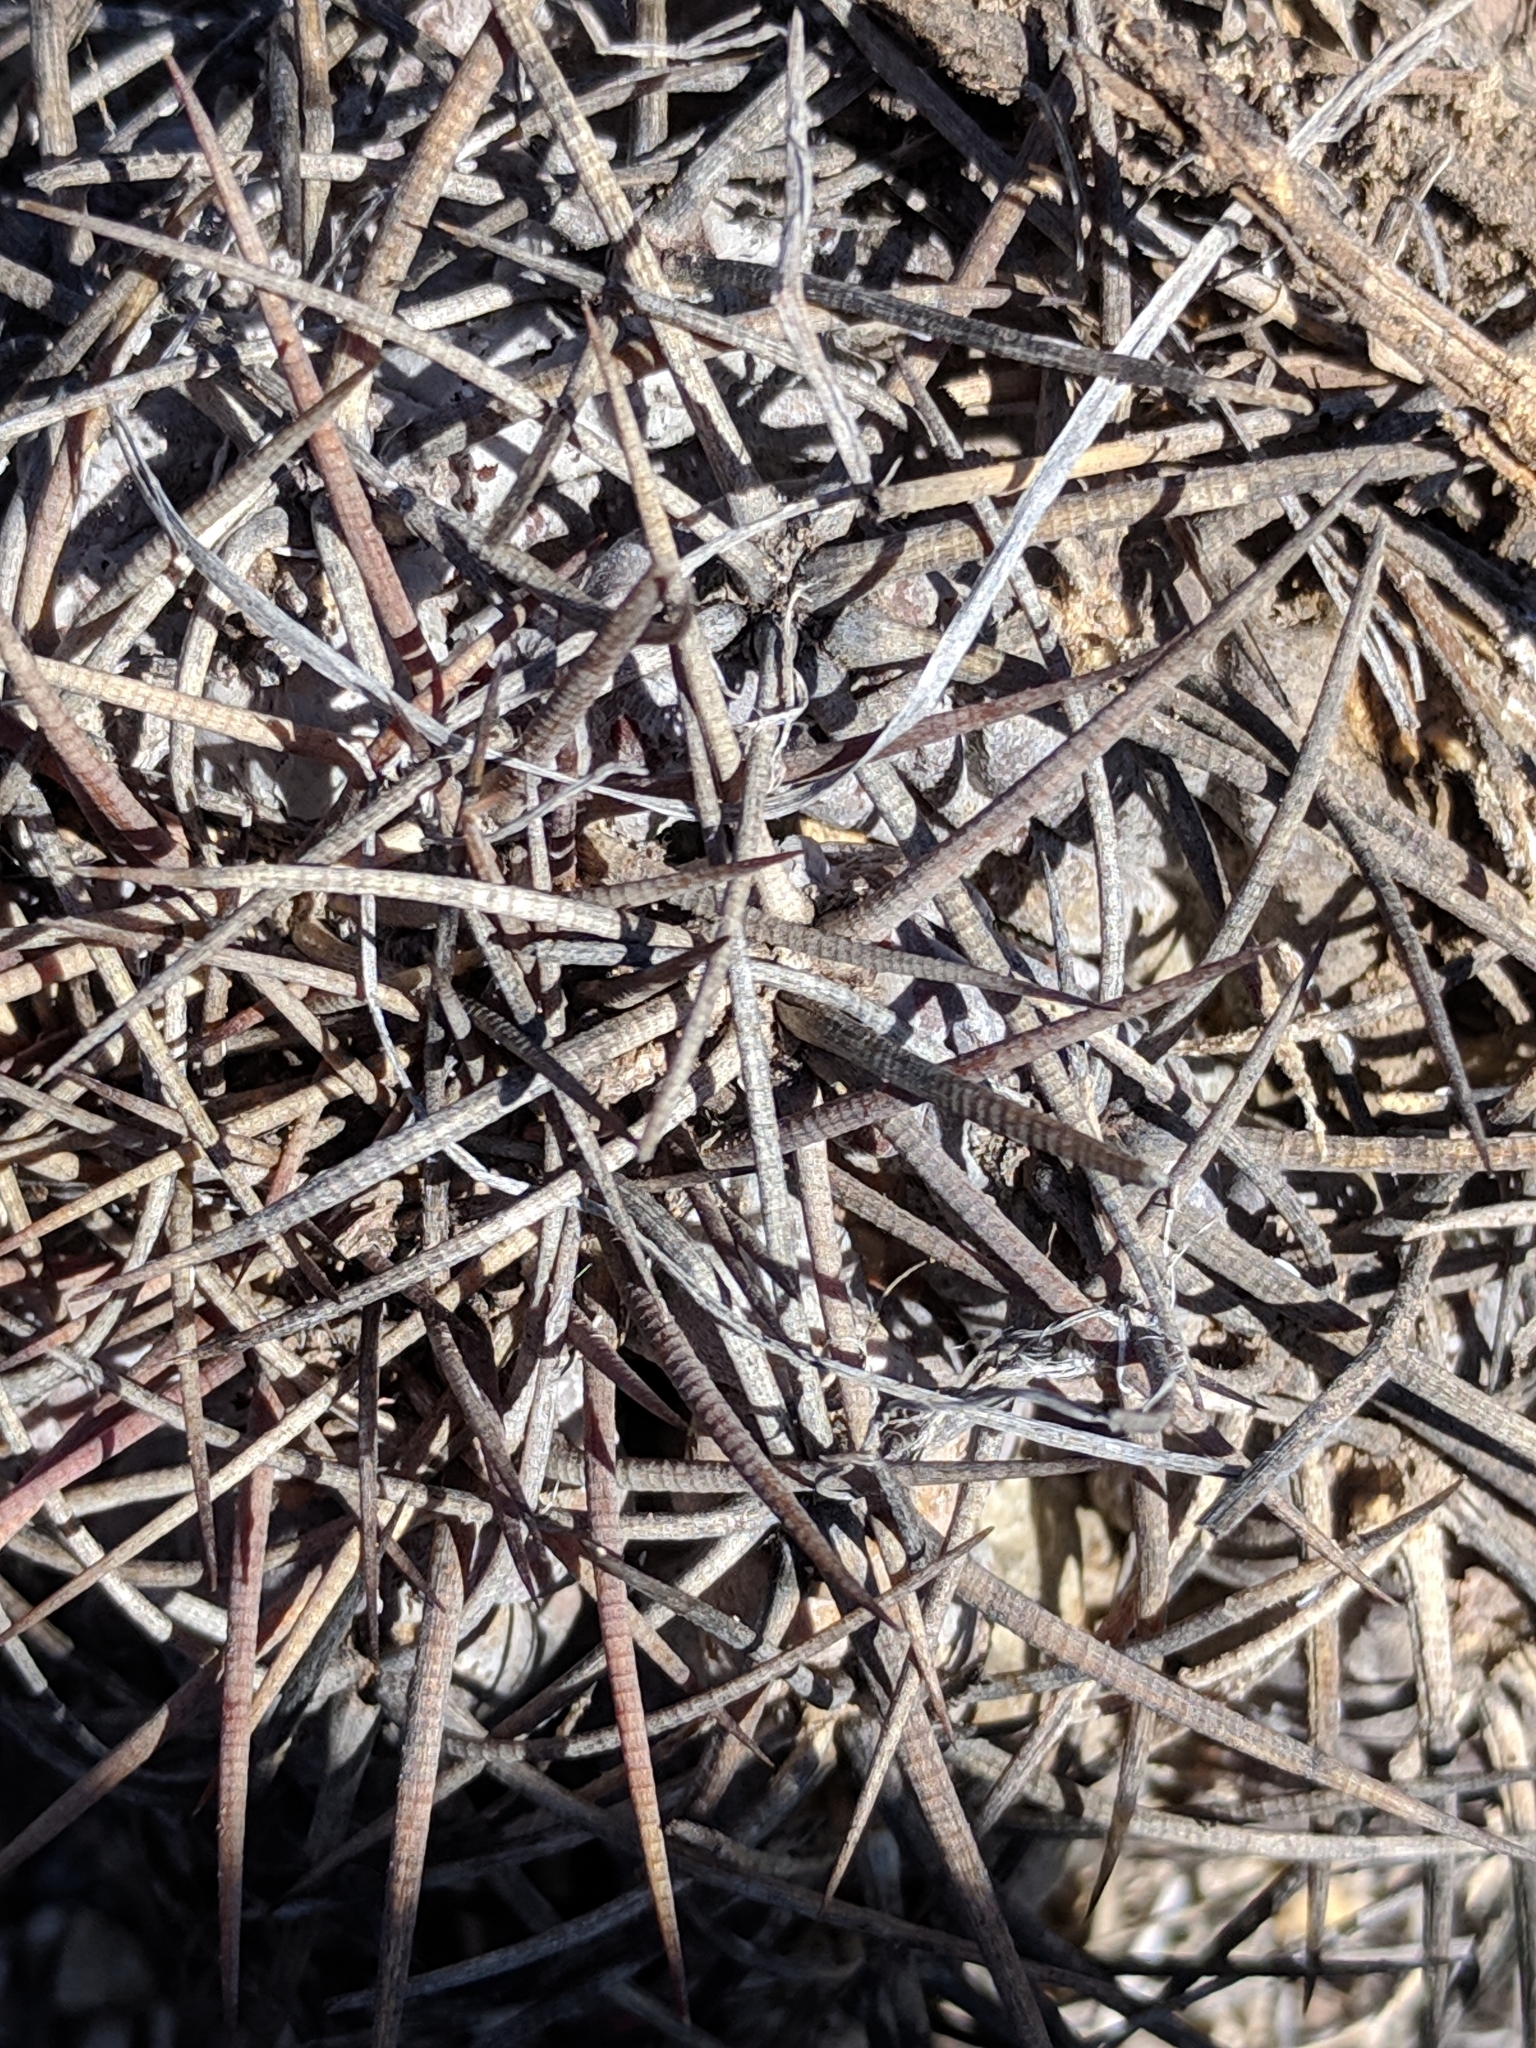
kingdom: Plantae
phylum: Tracheophyta
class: Magnoliopsida
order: Caryophyllales
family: Cactaceae
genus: Echinocactus
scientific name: Echinocactus horizonthalonius
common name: Devilshead
